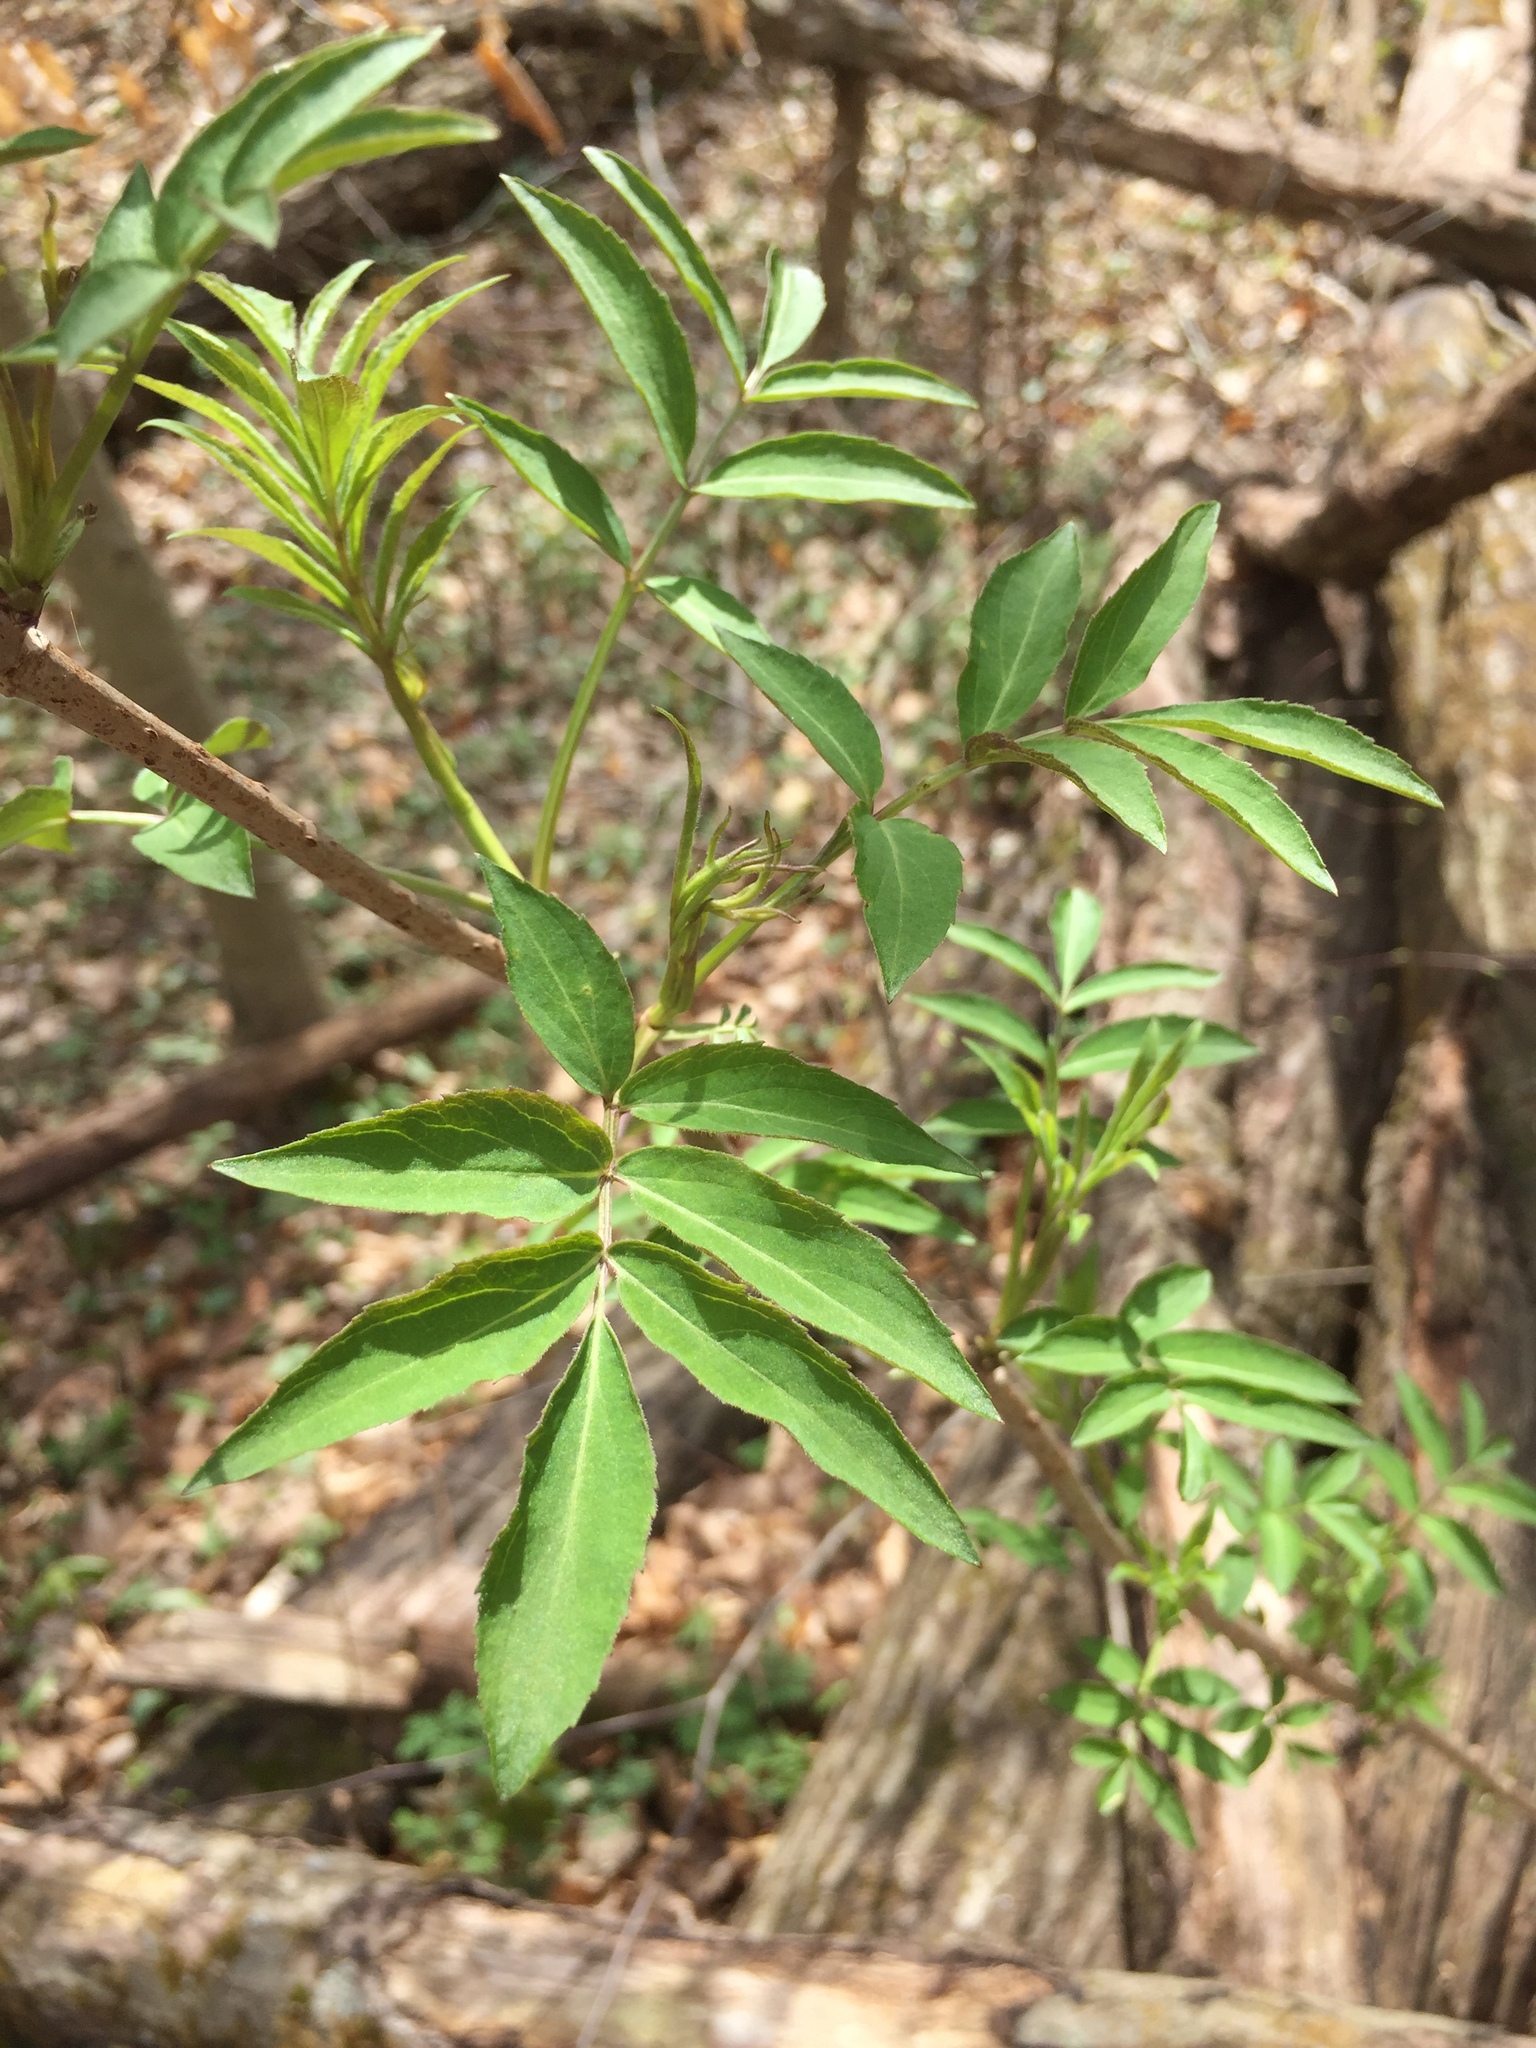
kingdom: Plantae
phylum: Tracheophyta
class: Magnoliopsida
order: Dipsacales
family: Viburnaceae
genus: Sambucus
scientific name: Sambucus canadensis
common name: American elder
